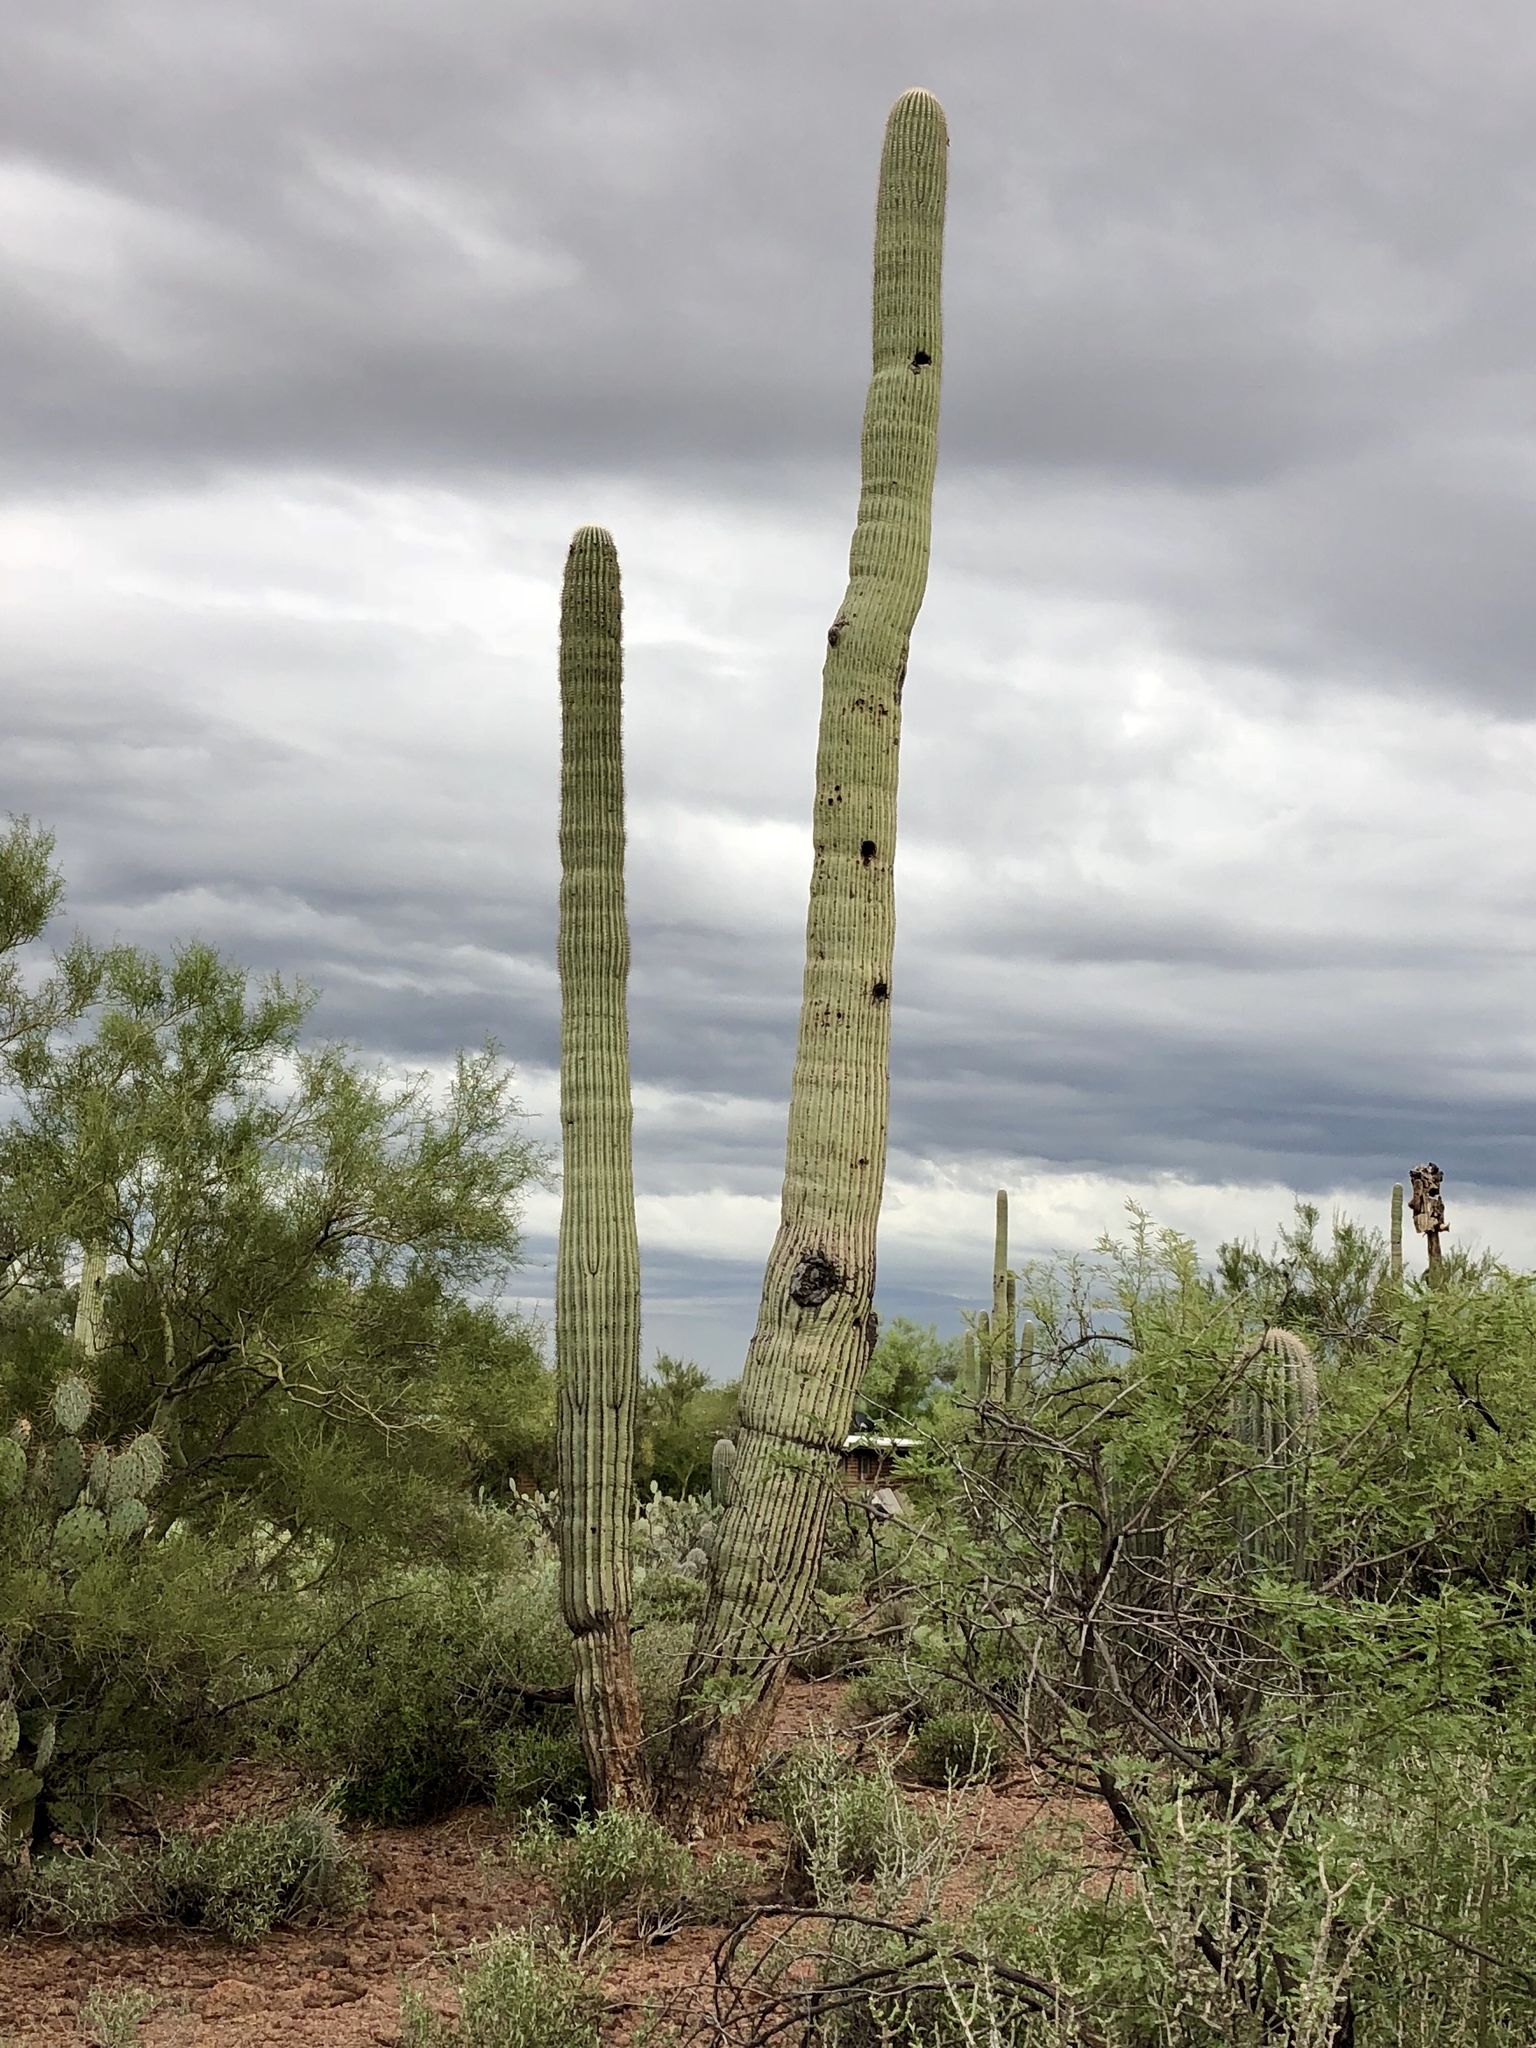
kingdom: Plantae
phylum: Tracheophyta
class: Magnoliopsida
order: Caryophyllales
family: Cactaceae
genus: Carnegiea
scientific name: Carnegiea gigantea
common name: Saguaro
